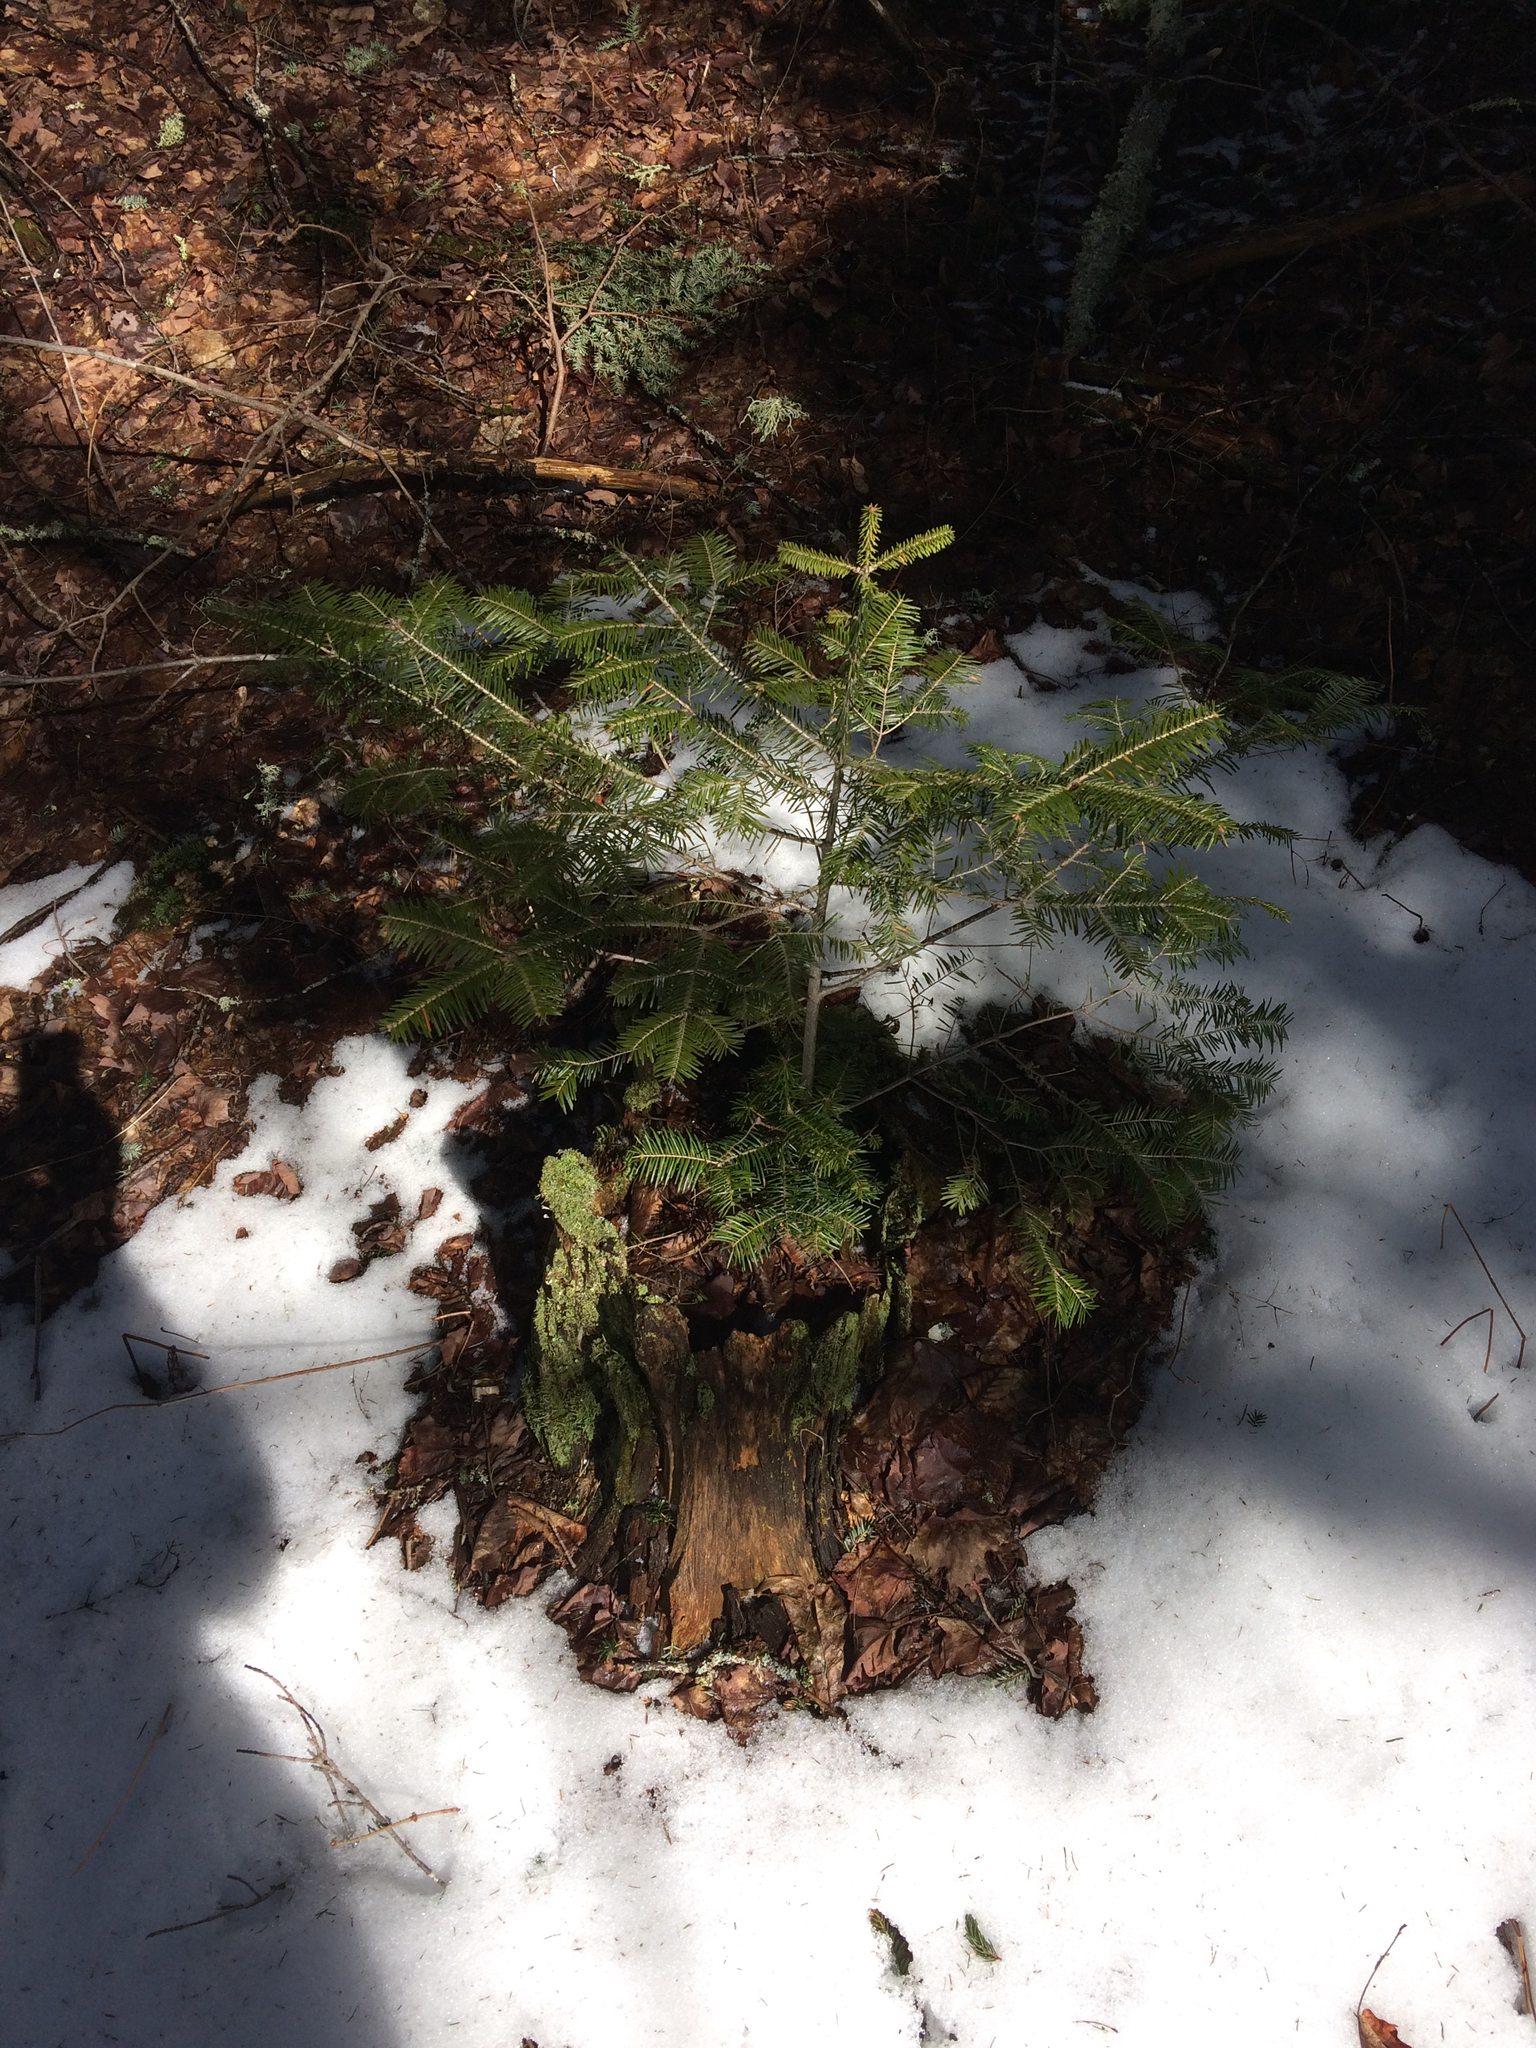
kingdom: Plantae
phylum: Tracheophyta
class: Pinopsida
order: Pinales
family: Pinaceae
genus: Abies
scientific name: Abies balsamea
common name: Balsam fir
